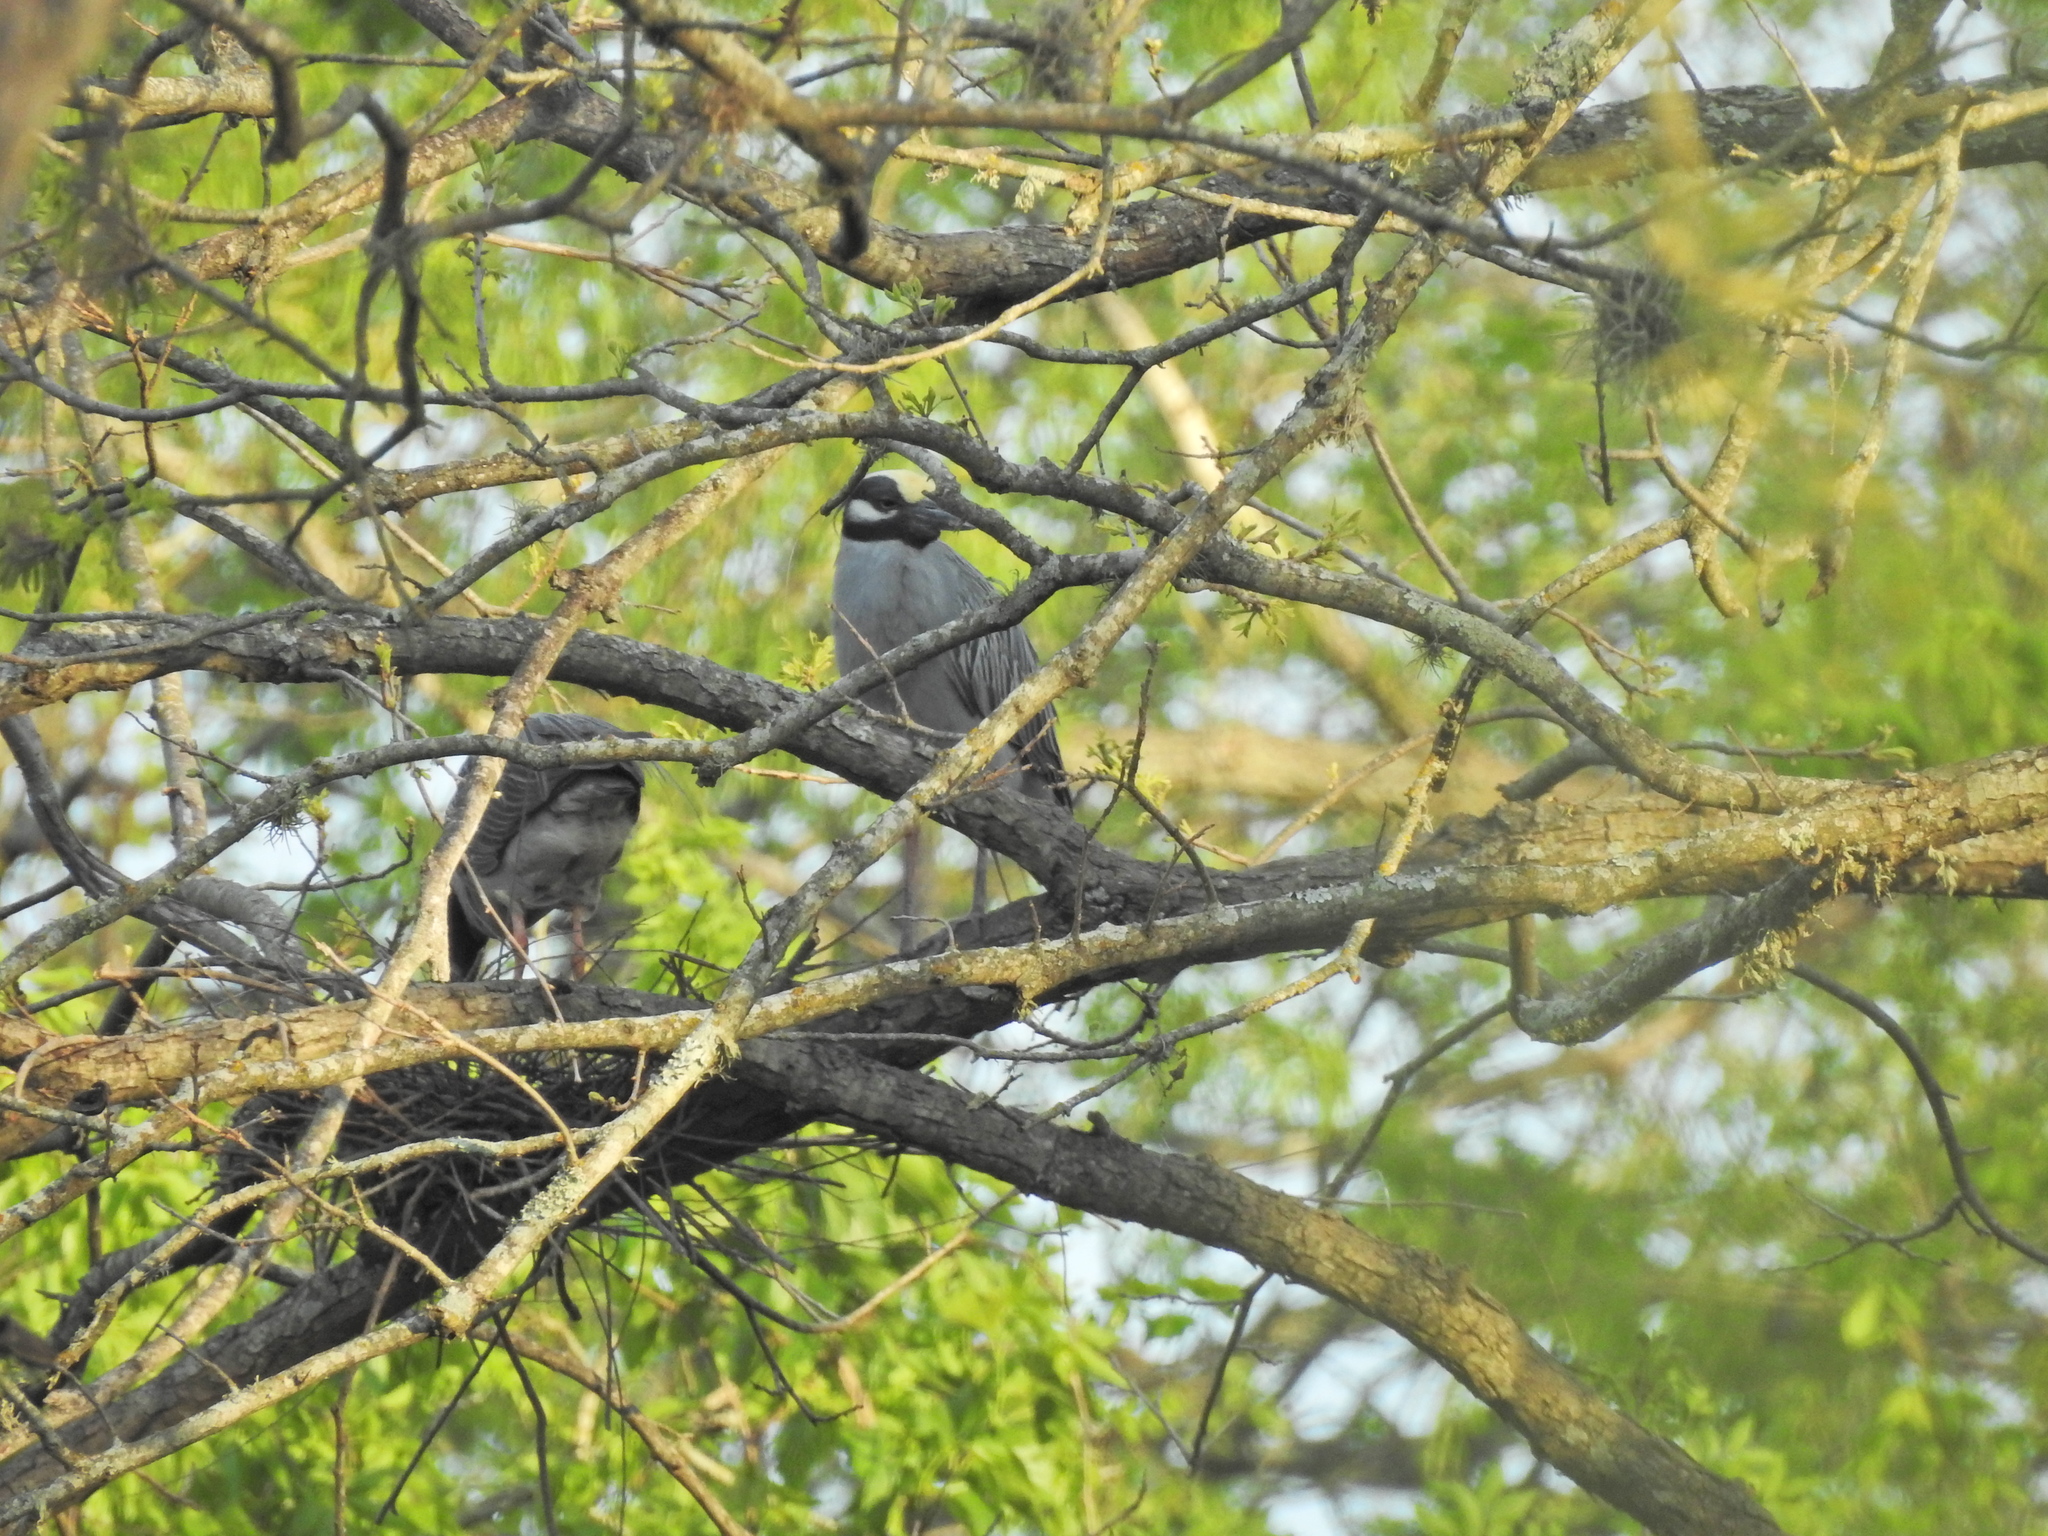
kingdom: Animalia
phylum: Chordata
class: Aves
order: Pelecaniformes
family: Ardeidae
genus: Nyctanassa
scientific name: Nyctanassa violacea
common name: Yellow-crowned night heron
